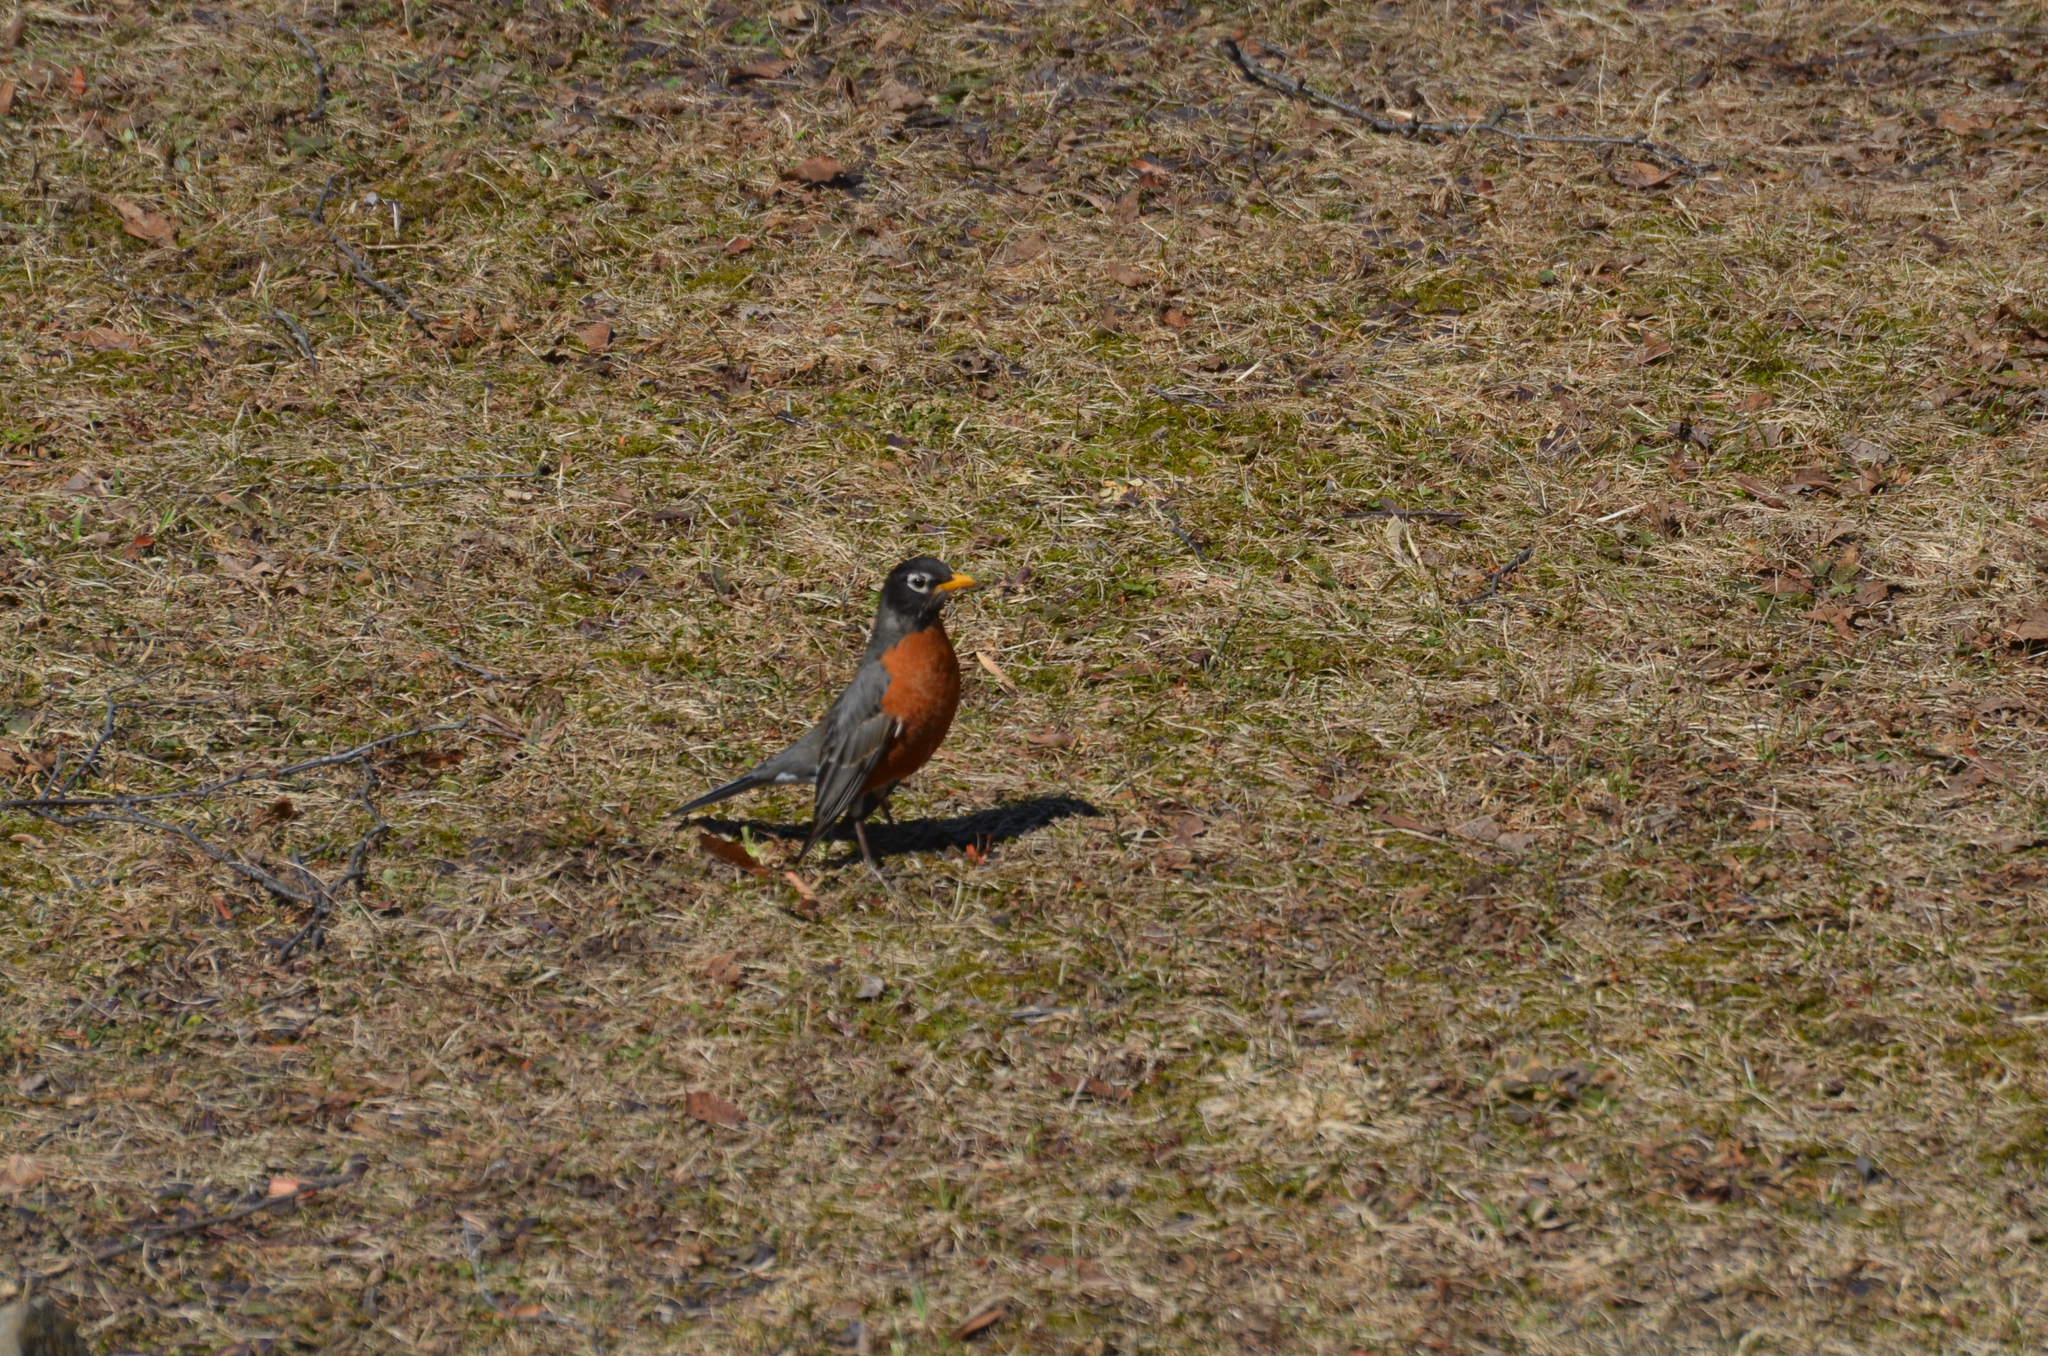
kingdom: Animalia
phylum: Chordata
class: Aves
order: Passeriformes
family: Turdidae
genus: Turdus
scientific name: Turdus migratorius
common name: American robin
